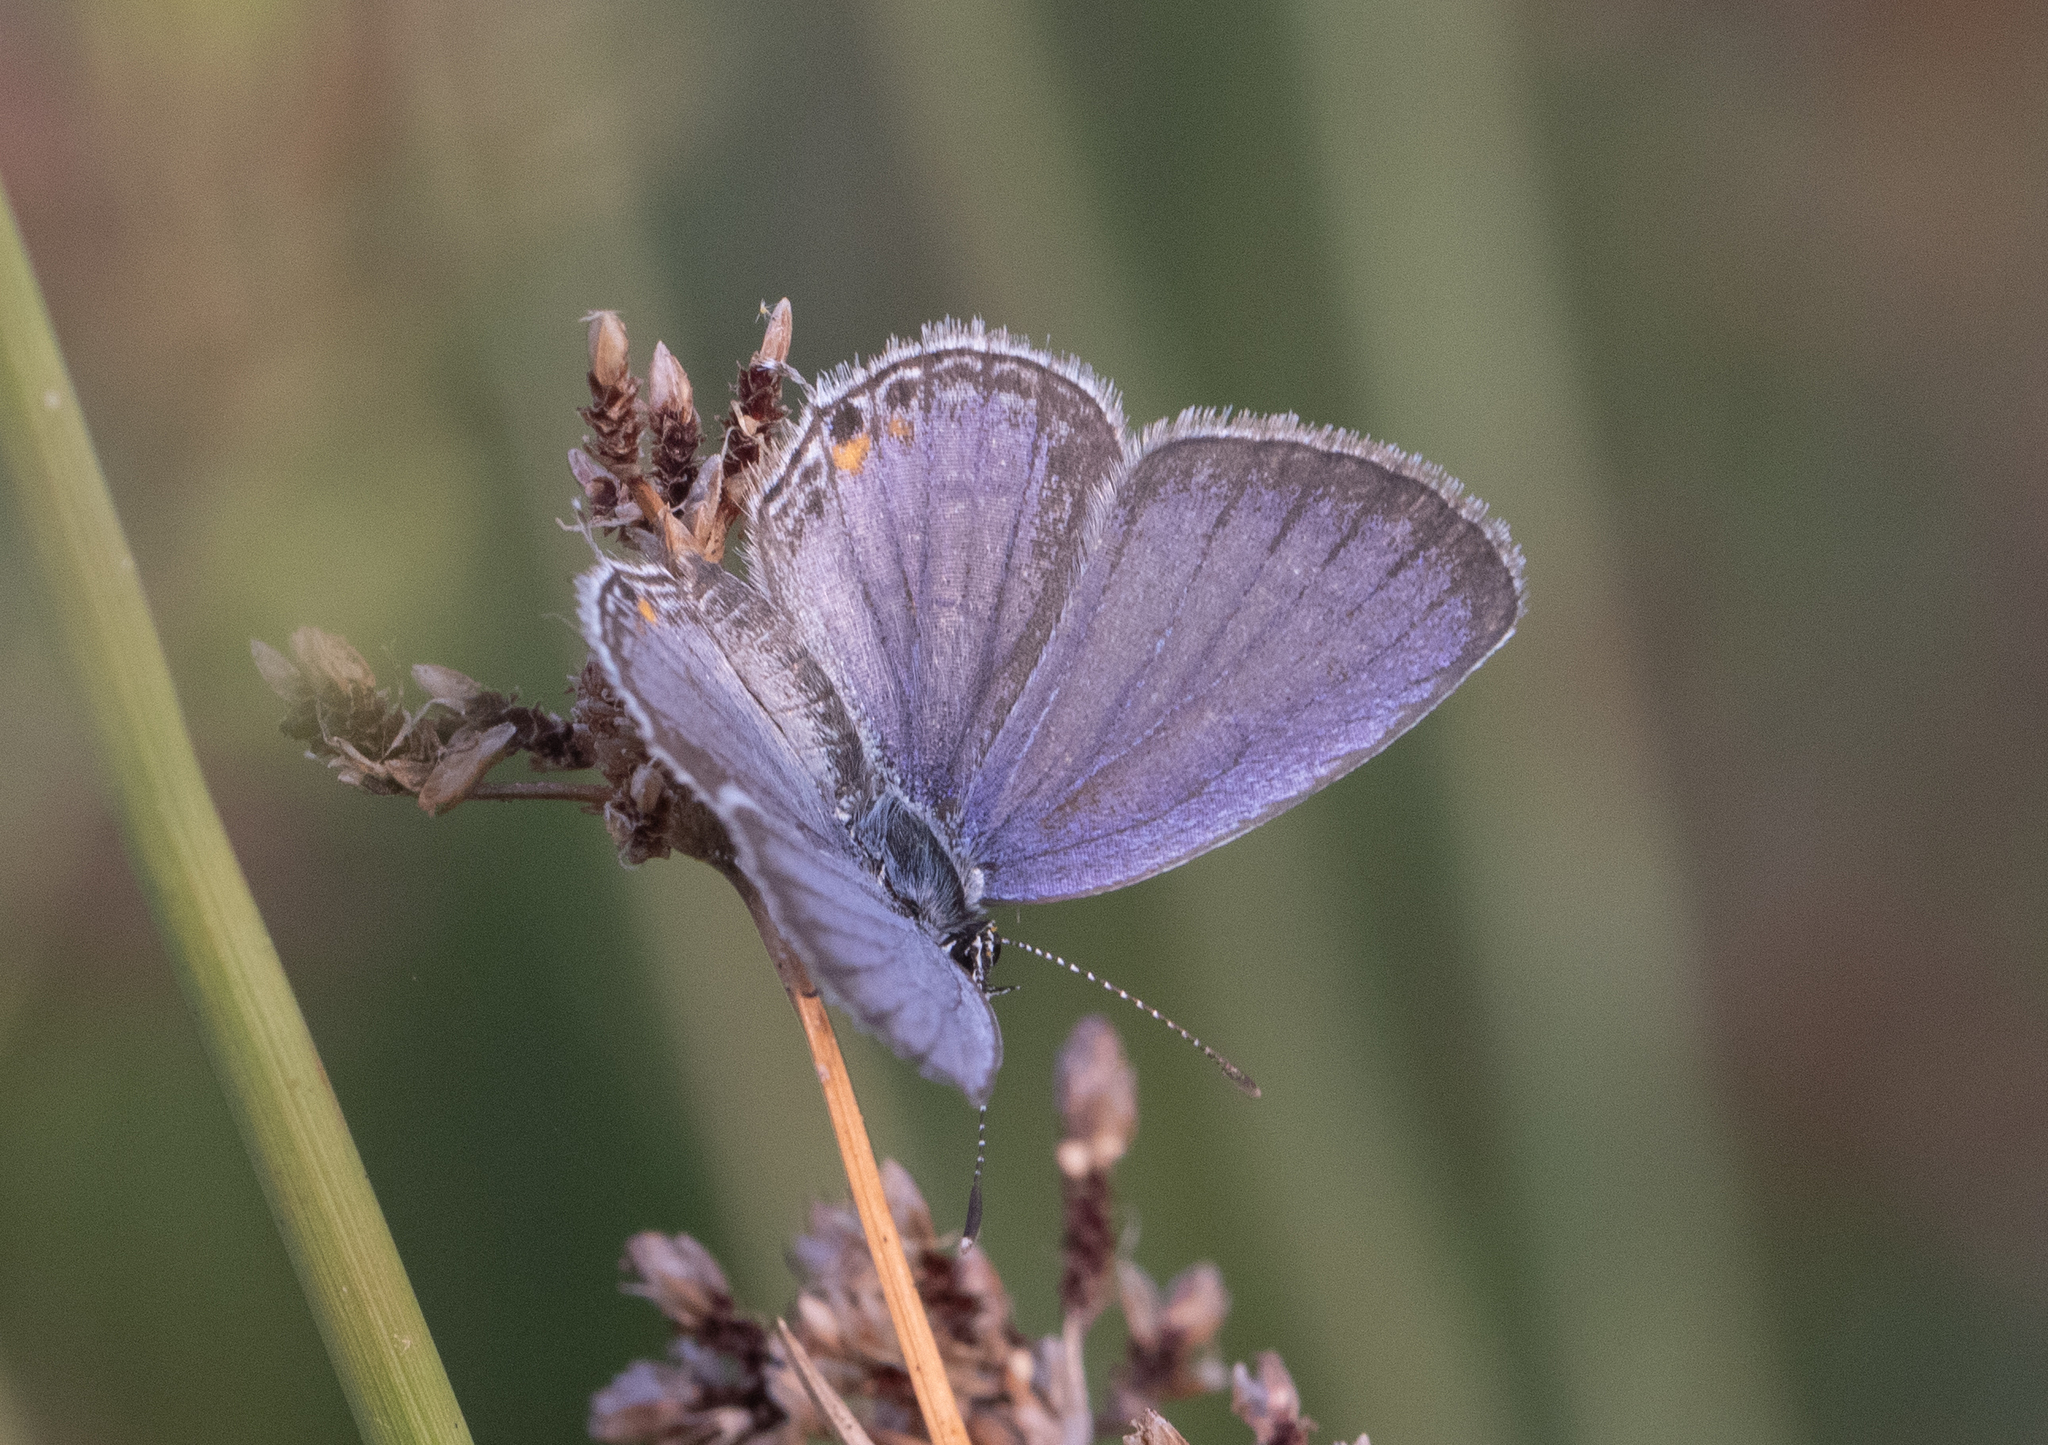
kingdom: Animalia
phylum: Arthropoda
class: Insecta
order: Lepidoptera
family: Lycaenidae
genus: Elkalyce
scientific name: Elkalyce comyntas
